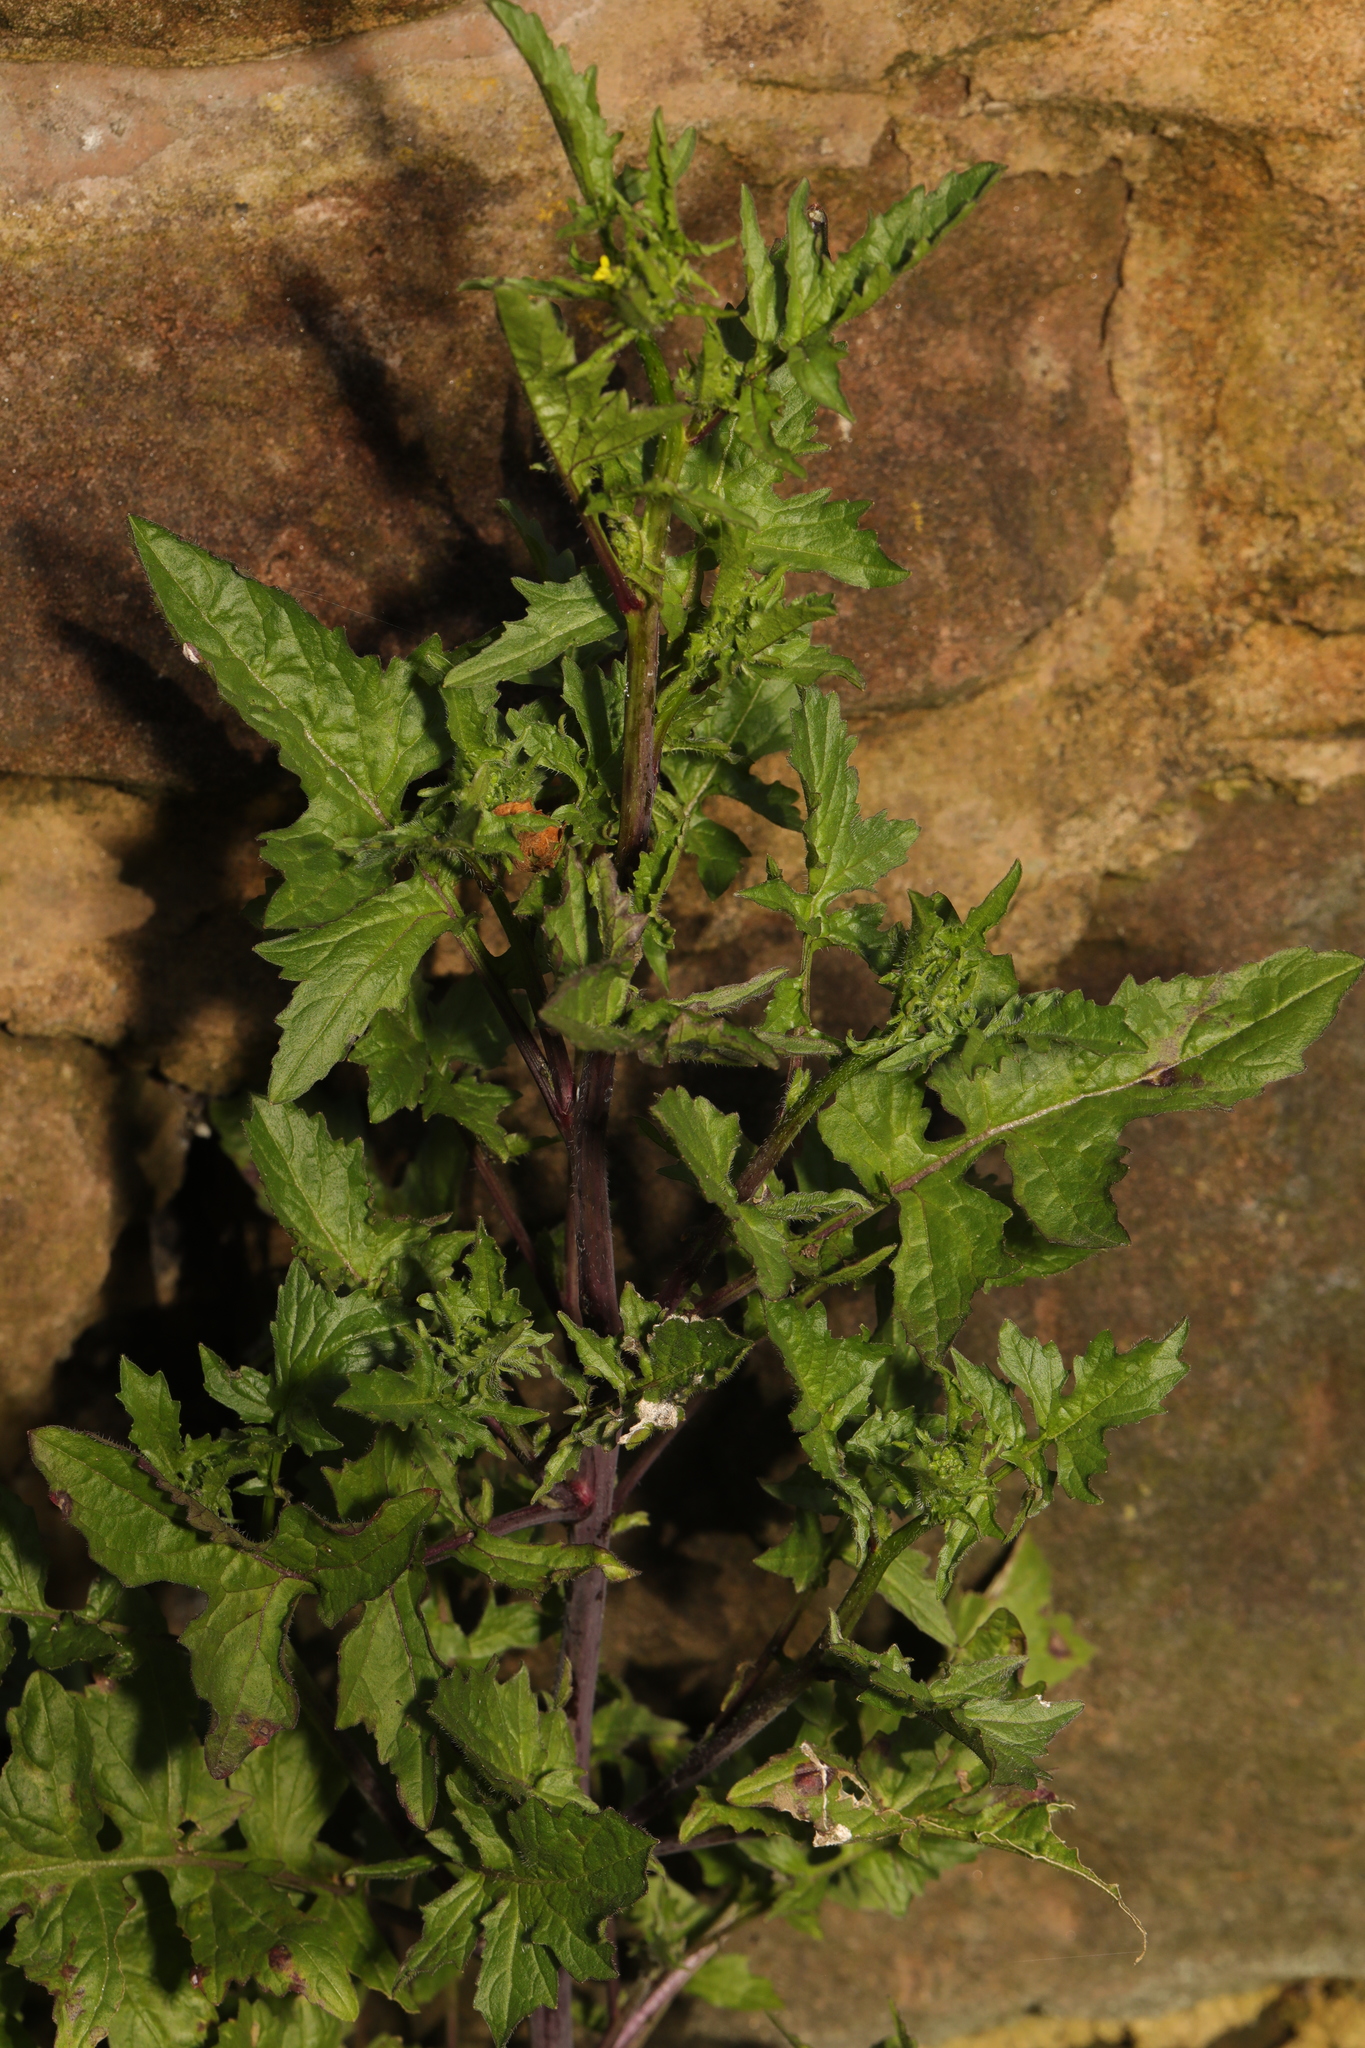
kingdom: Plantae
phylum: Tracheophyta
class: Magnoliopsida
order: Brassicales
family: Brassicaceae
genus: Sisymbrium
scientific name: Sisymbrium officinale
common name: Hedge mustard
